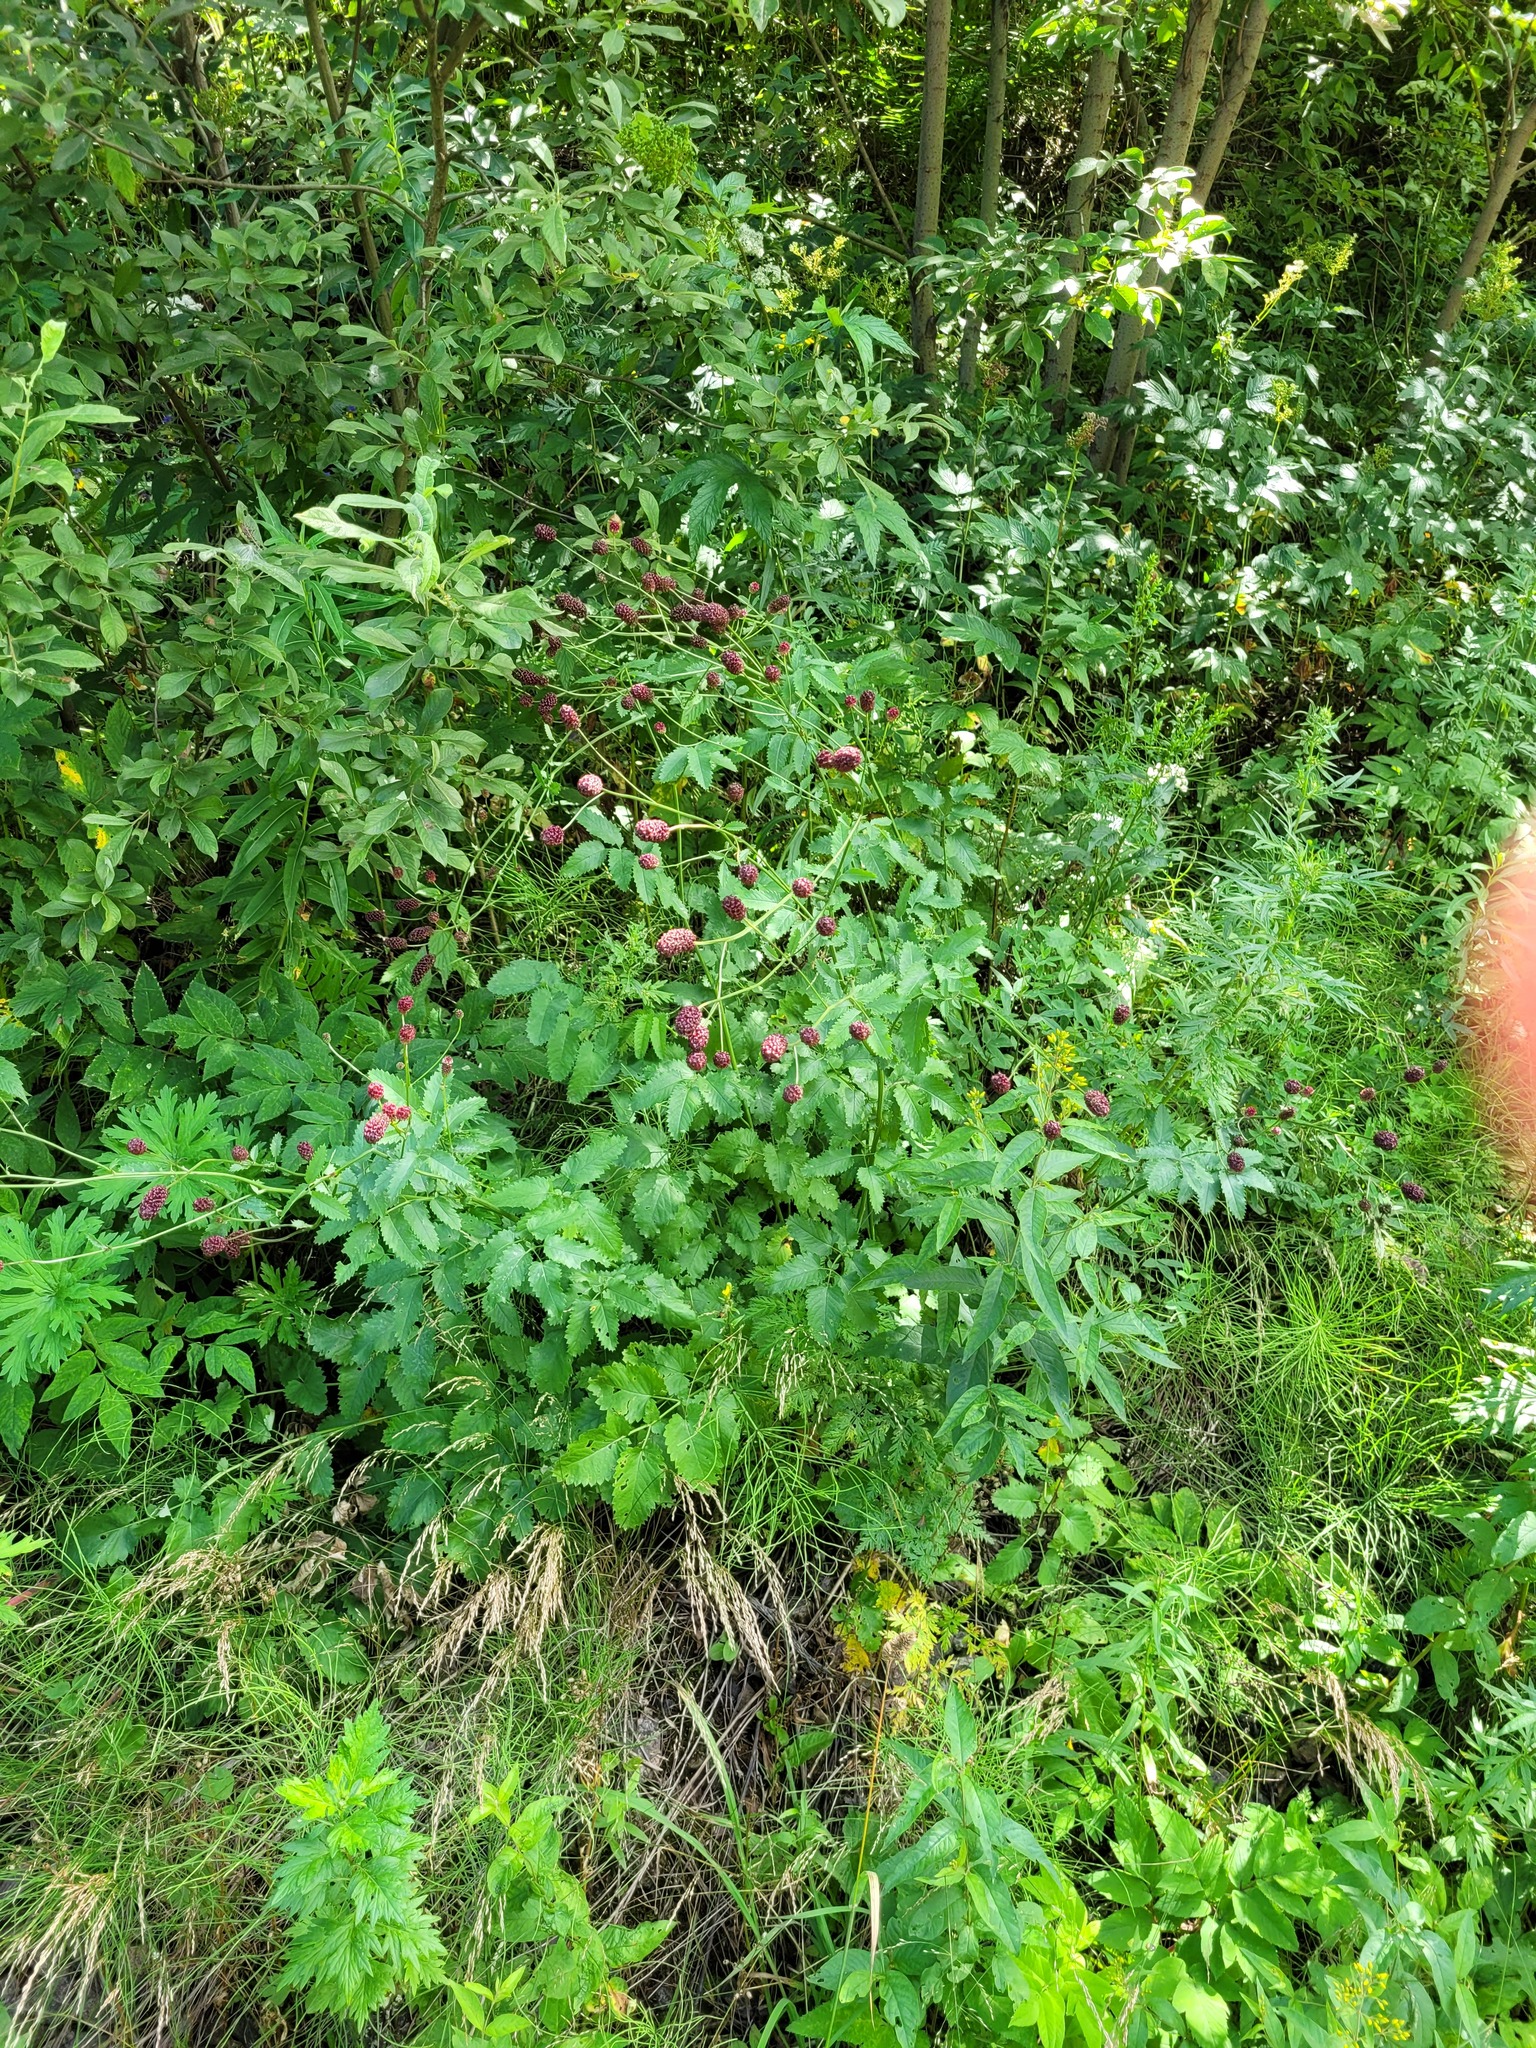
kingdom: Plantae
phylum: Tracheophyta
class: Magnoliopsida
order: Rosales
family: Rosaceae
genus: Sanguisorba
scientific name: Sanguisorba officinalis
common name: Great burnet
